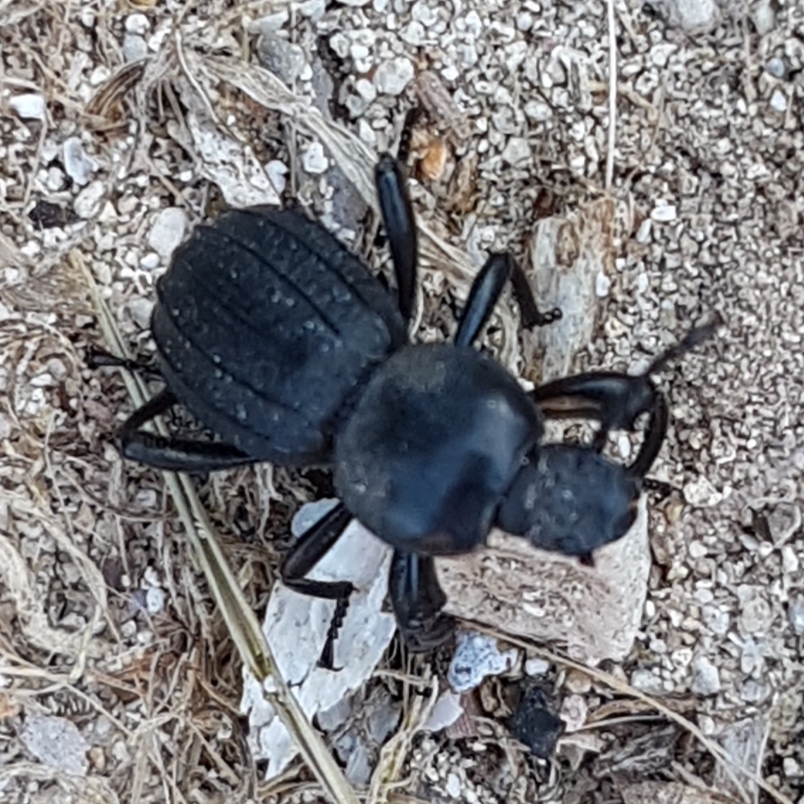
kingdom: Animalia
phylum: Arthropoda
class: Insecta
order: Coleoptera
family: Tenebrionidae
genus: Scaurus
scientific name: Scaurus striatus
